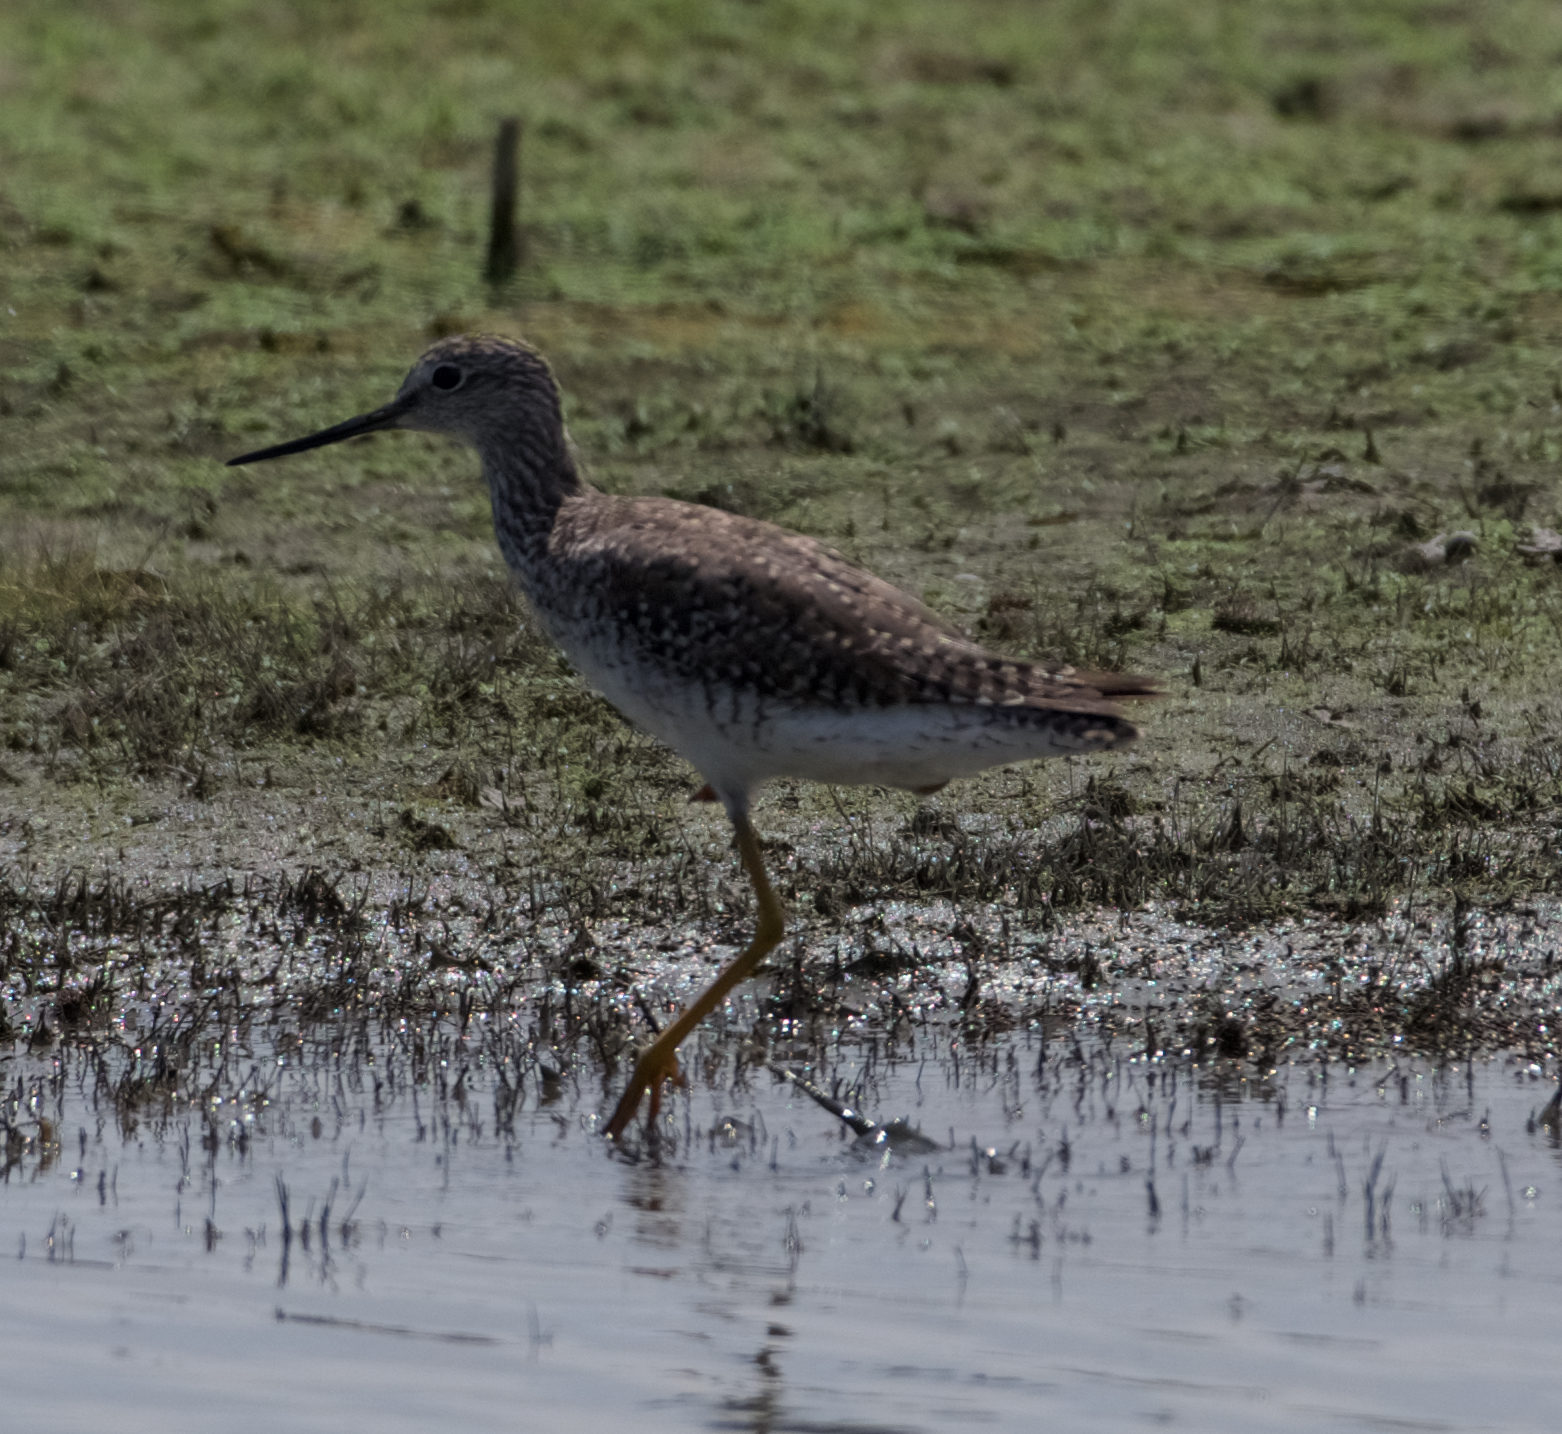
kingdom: Animalia
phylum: Chordata
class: Aves
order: Charadriiformes
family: Scolopacidae
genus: Tringa
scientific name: Tringa melanoleuca
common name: Greater yellowlegs
